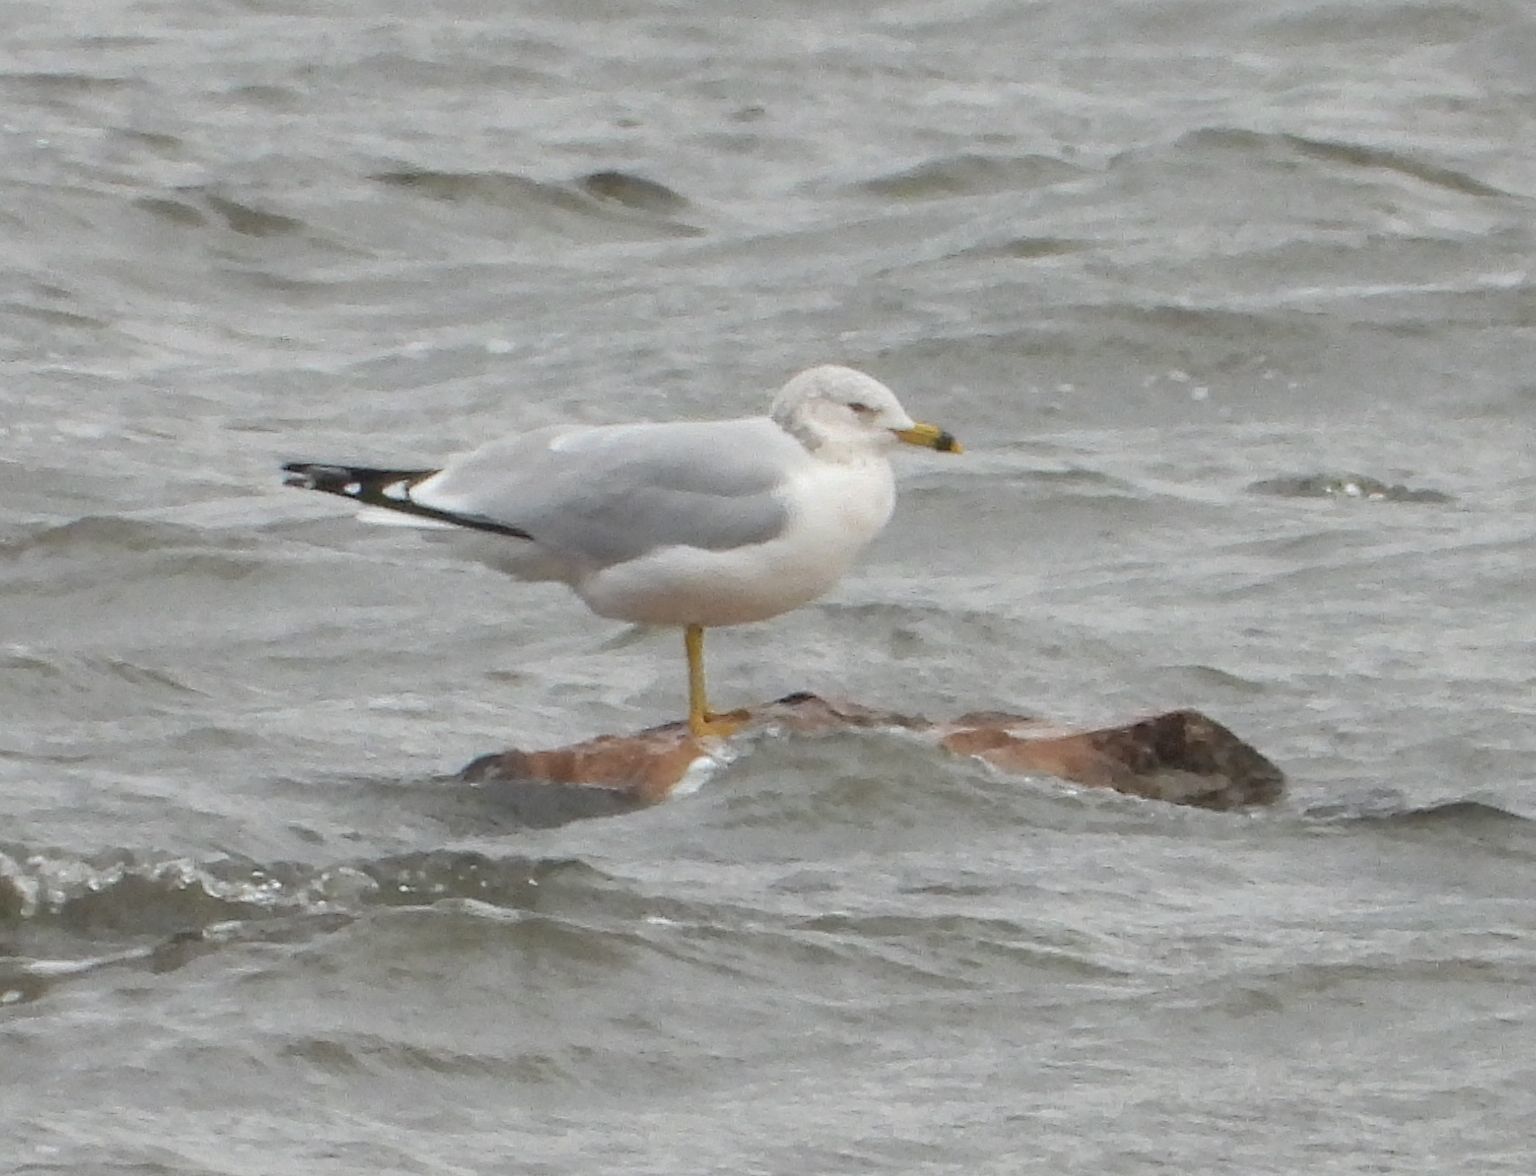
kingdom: Animalia
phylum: Chordata
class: Aves
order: Charadriiformes
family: Laridae
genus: Larus
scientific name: Larus delawarensis
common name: Ring-billed gull
